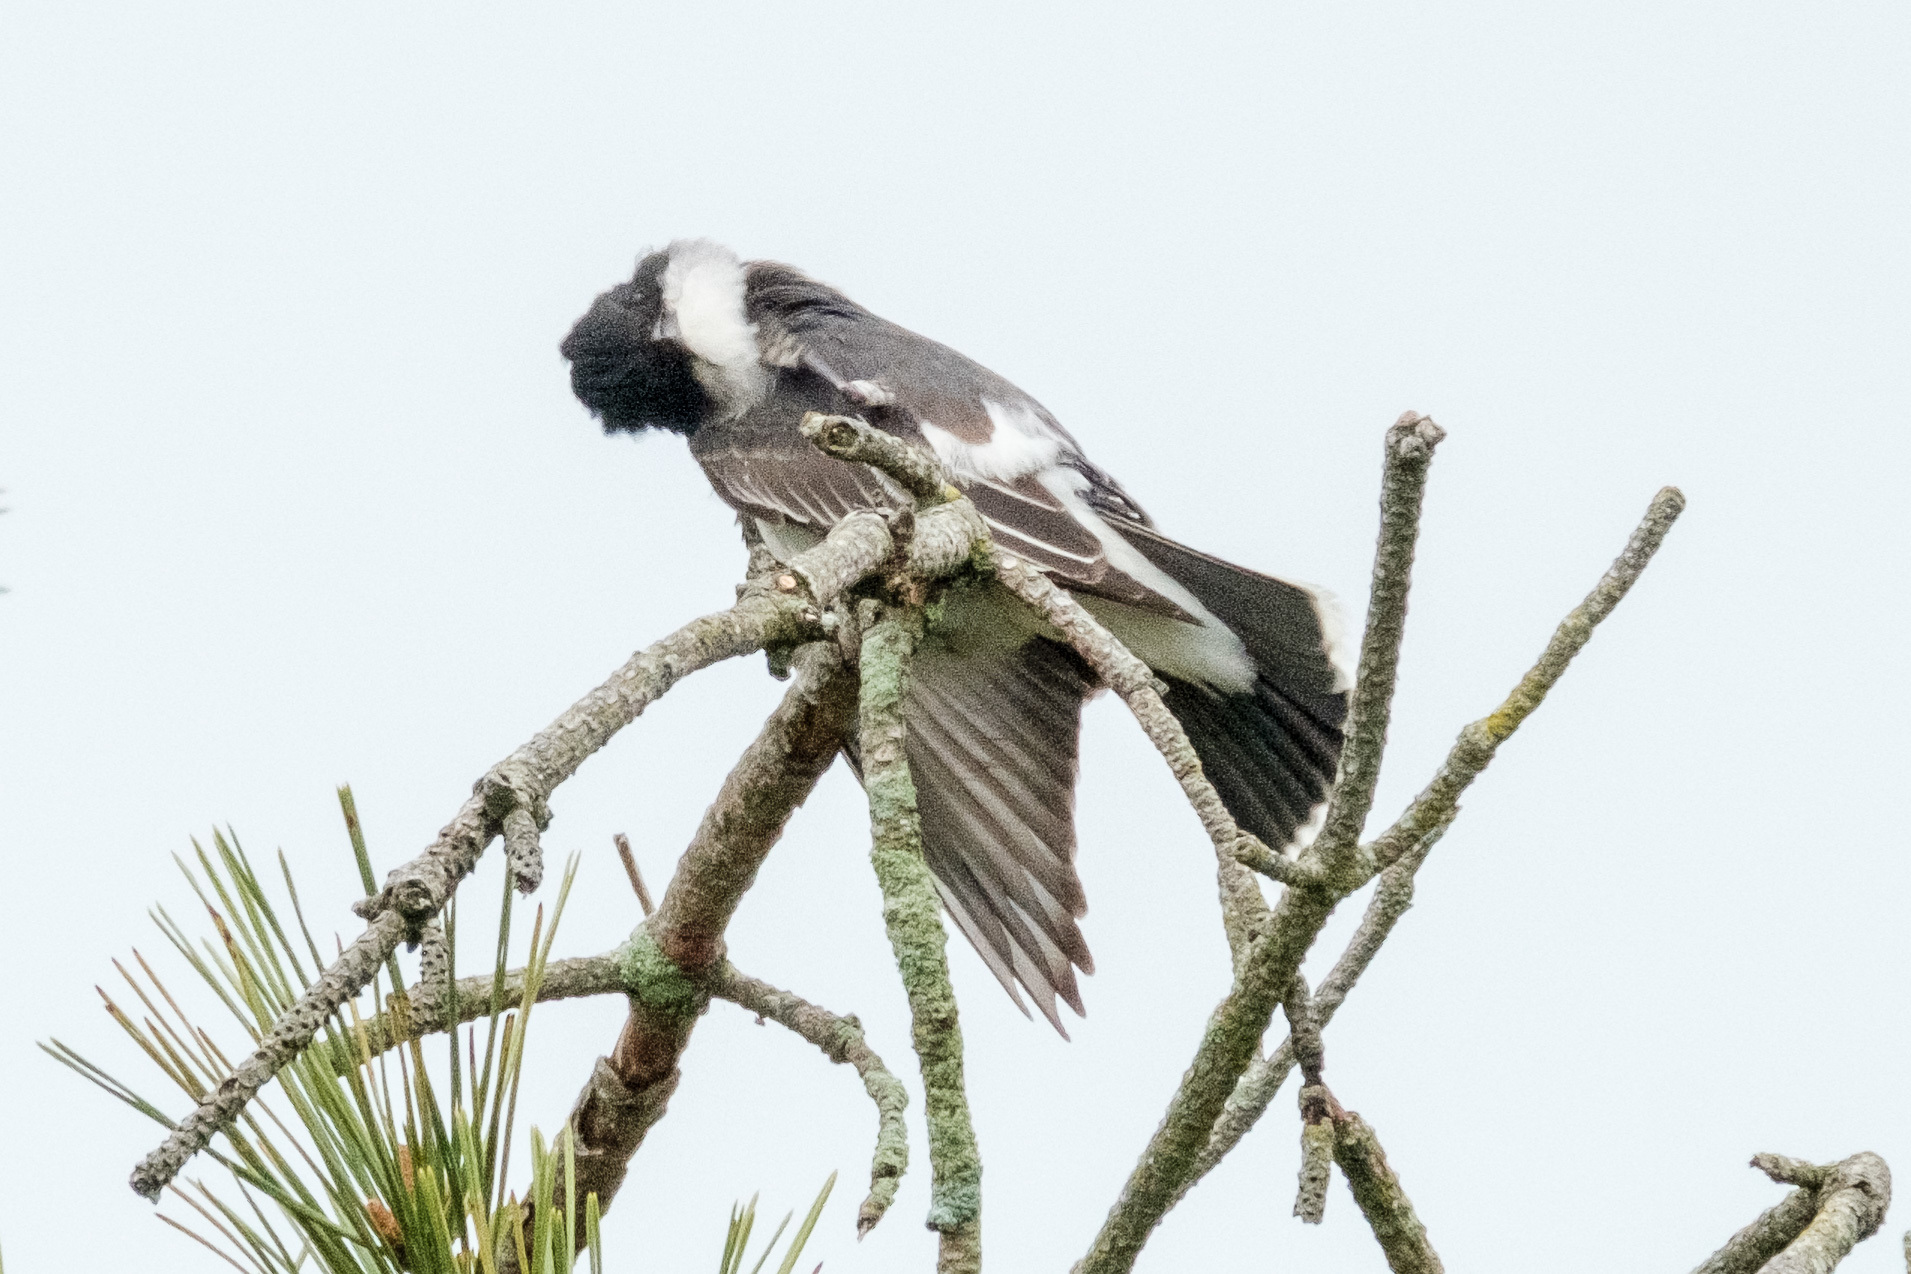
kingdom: Animalia
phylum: Chordata
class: Aves
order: Passeriformes
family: Tyrannidae
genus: Tyrannus
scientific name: Tyrannus tyrannus
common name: Eastern kingbird
